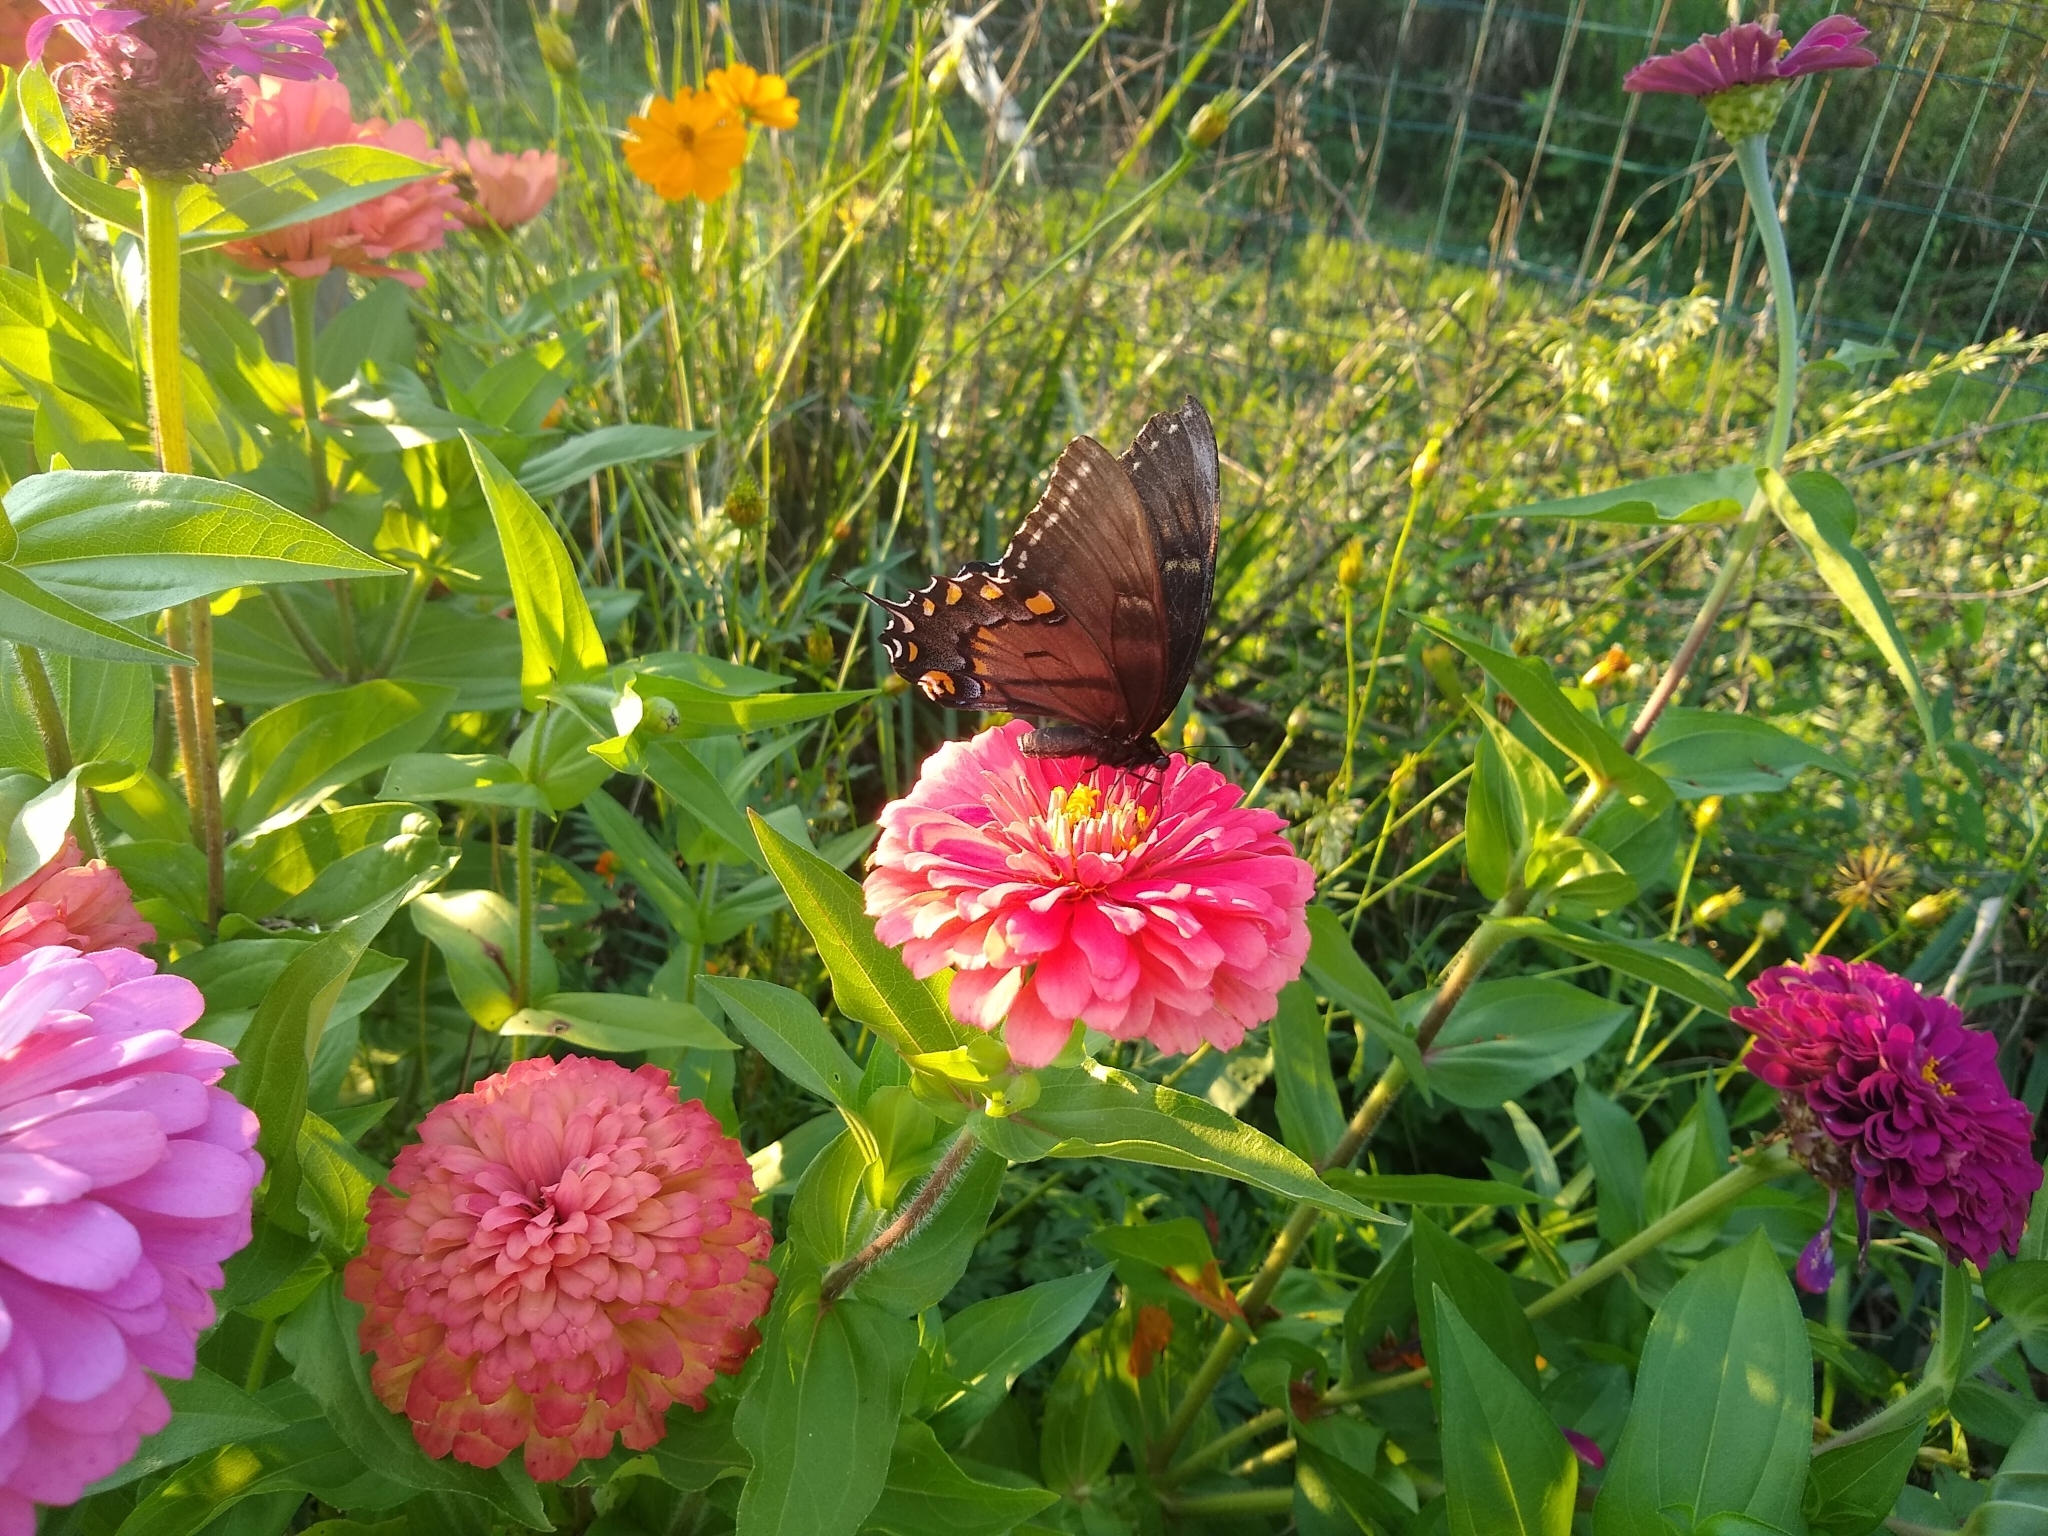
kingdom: Animalia
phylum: Arthropoda
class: Insecta
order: Lepidoptera
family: Papilionidae
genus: Papilio
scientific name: Papilio glaucus
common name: Tiger swallowtail
